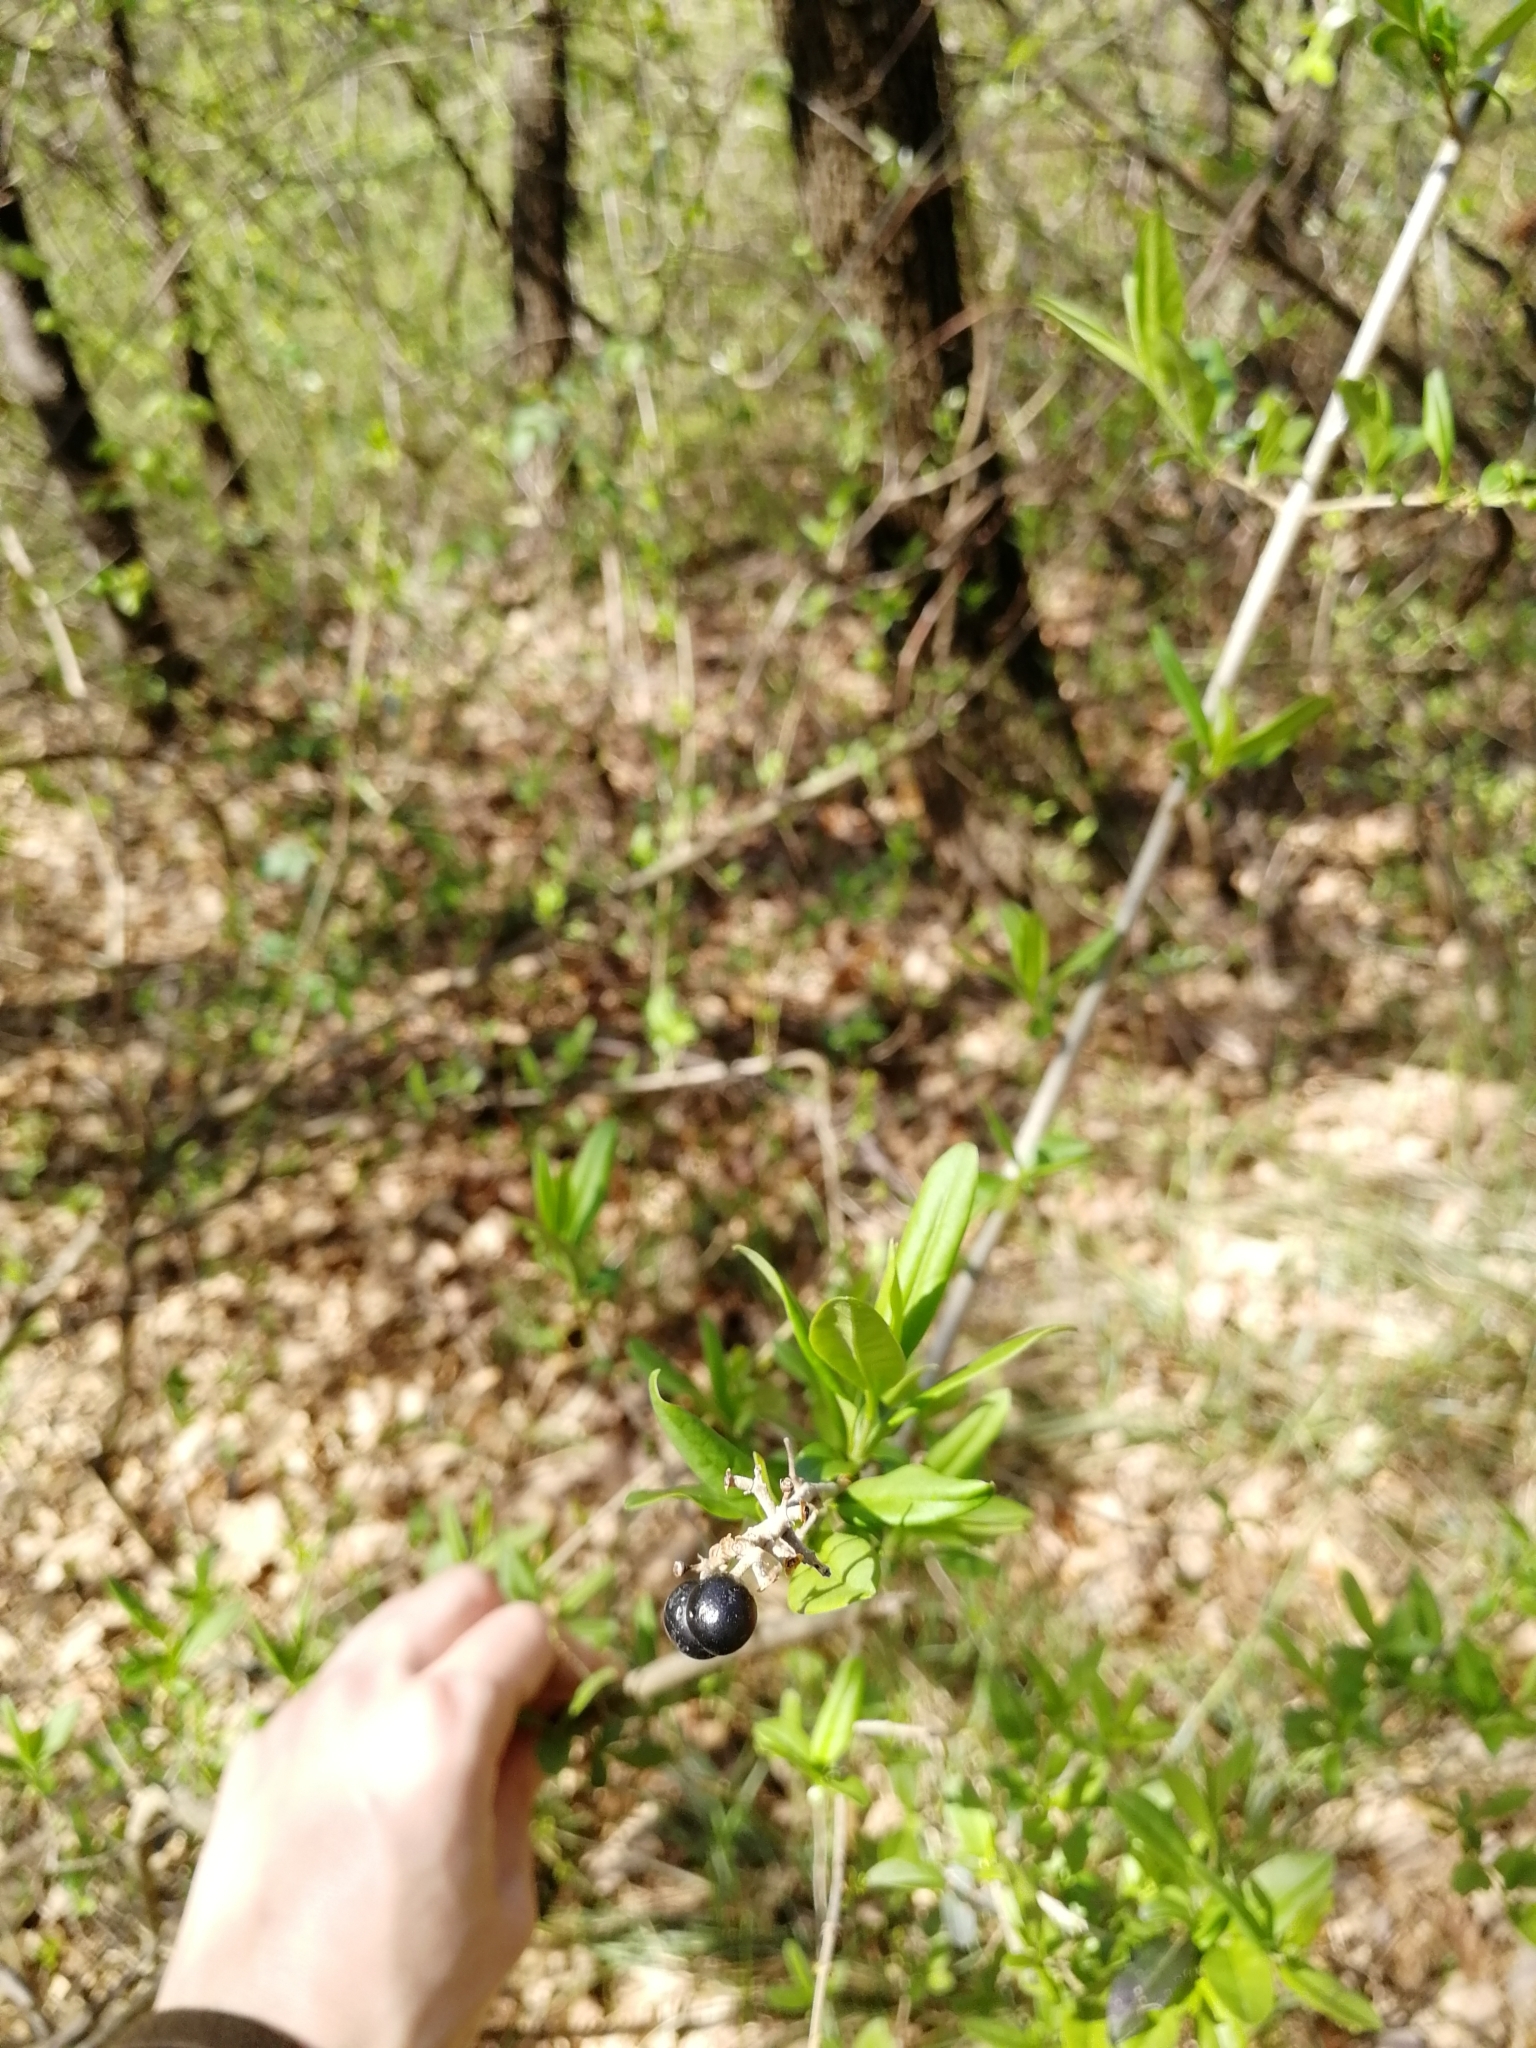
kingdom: Plantae
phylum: Tracheophyta
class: Magnoliopsida
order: Lamiales
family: Oleaceae
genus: Ligustrum
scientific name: Ligustrum vulgare
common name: Wild privet
